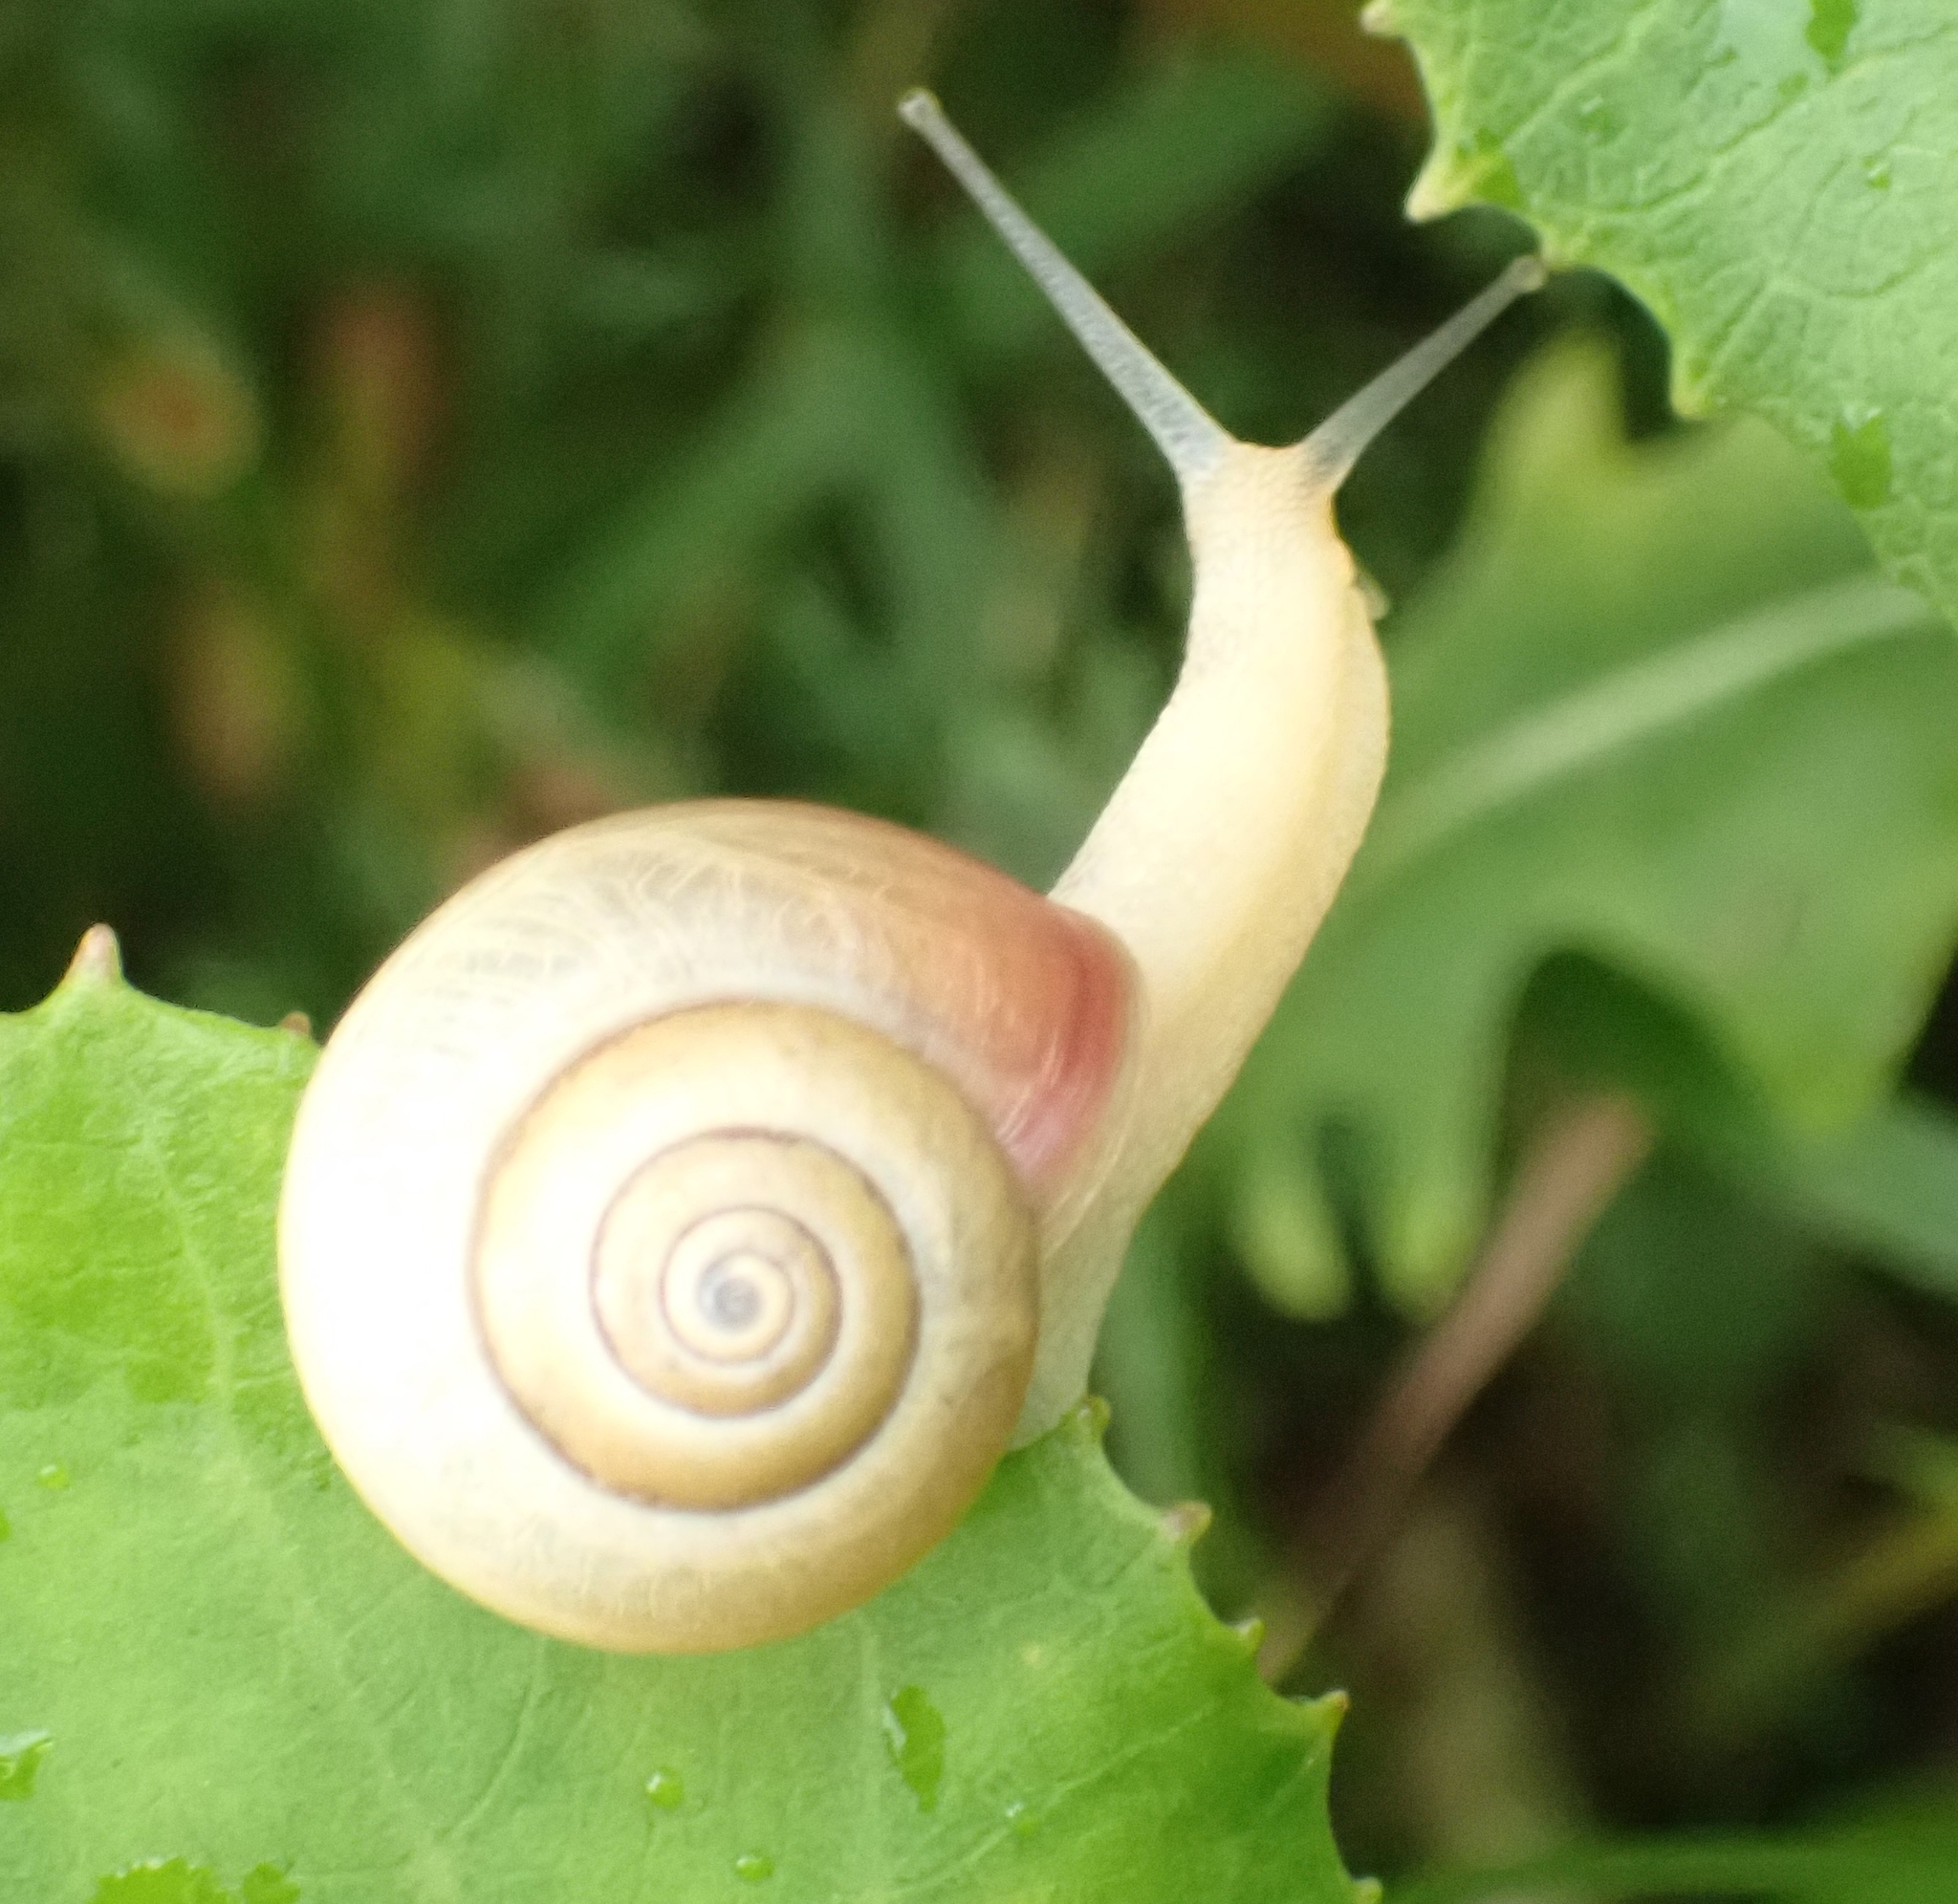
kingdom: Animalia
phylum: Mollusca
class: Gastropoda
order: Stylommatophora
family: Hygromiidae
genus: Monacha
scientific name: Monacha cantiana
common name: Kentish snail
